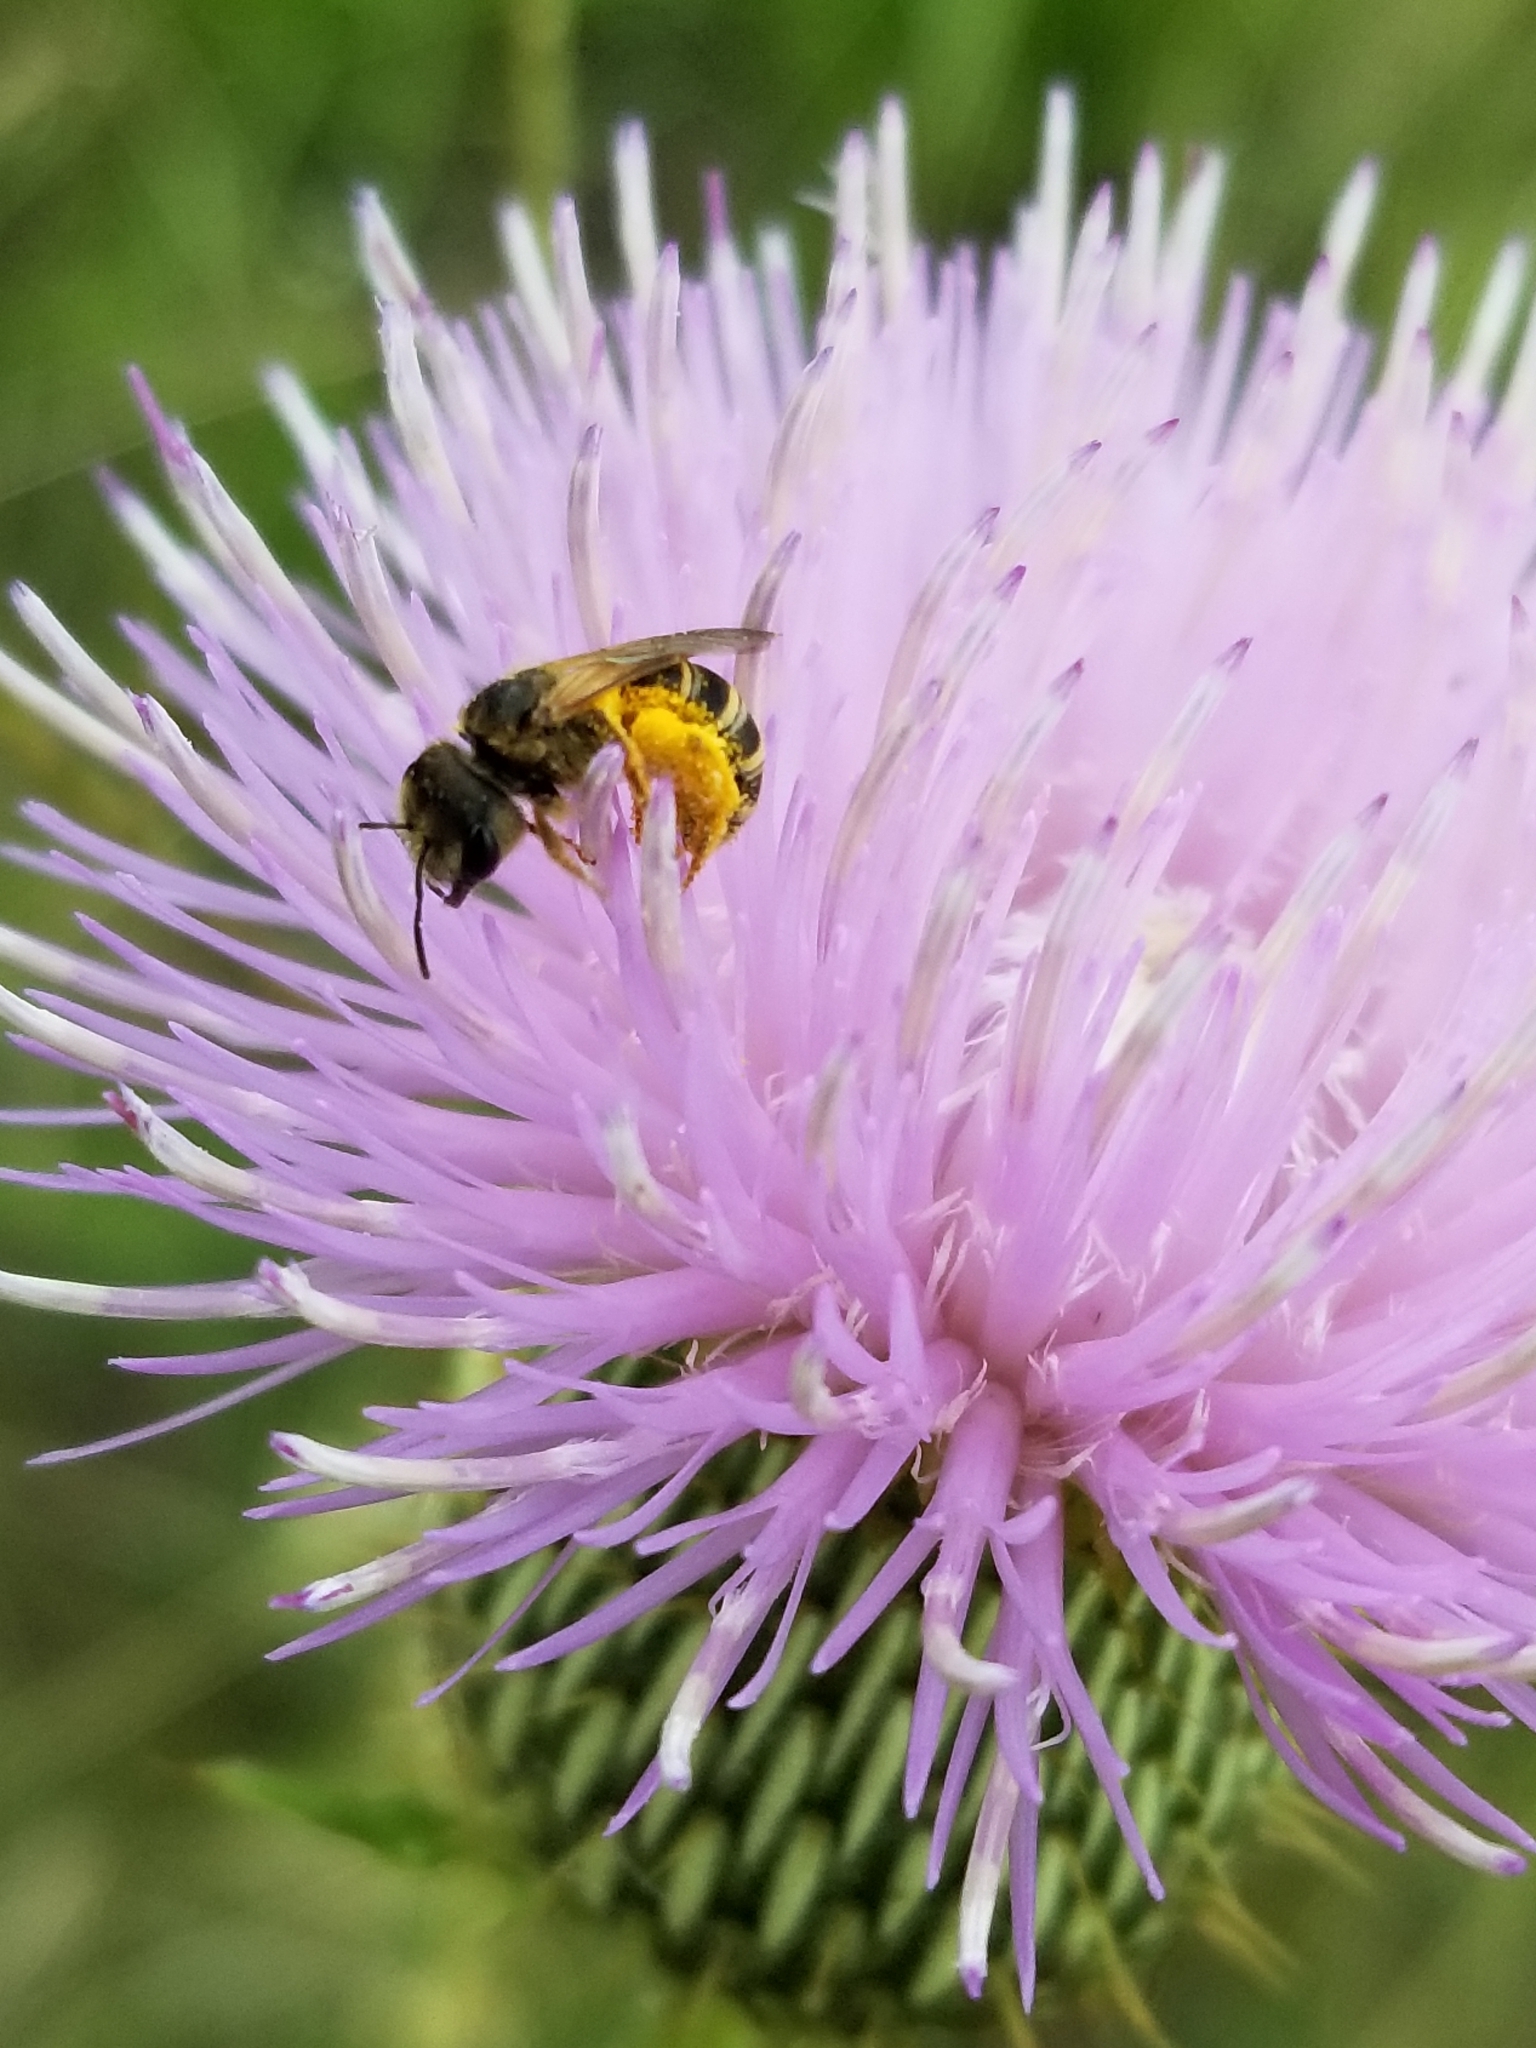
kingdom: Animalia
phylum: Arthropoda
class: Insecta
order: Hymenoptera
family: Halictidae
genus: Halictus
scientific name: Halictus ligatus
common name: Ligated furrow bee
